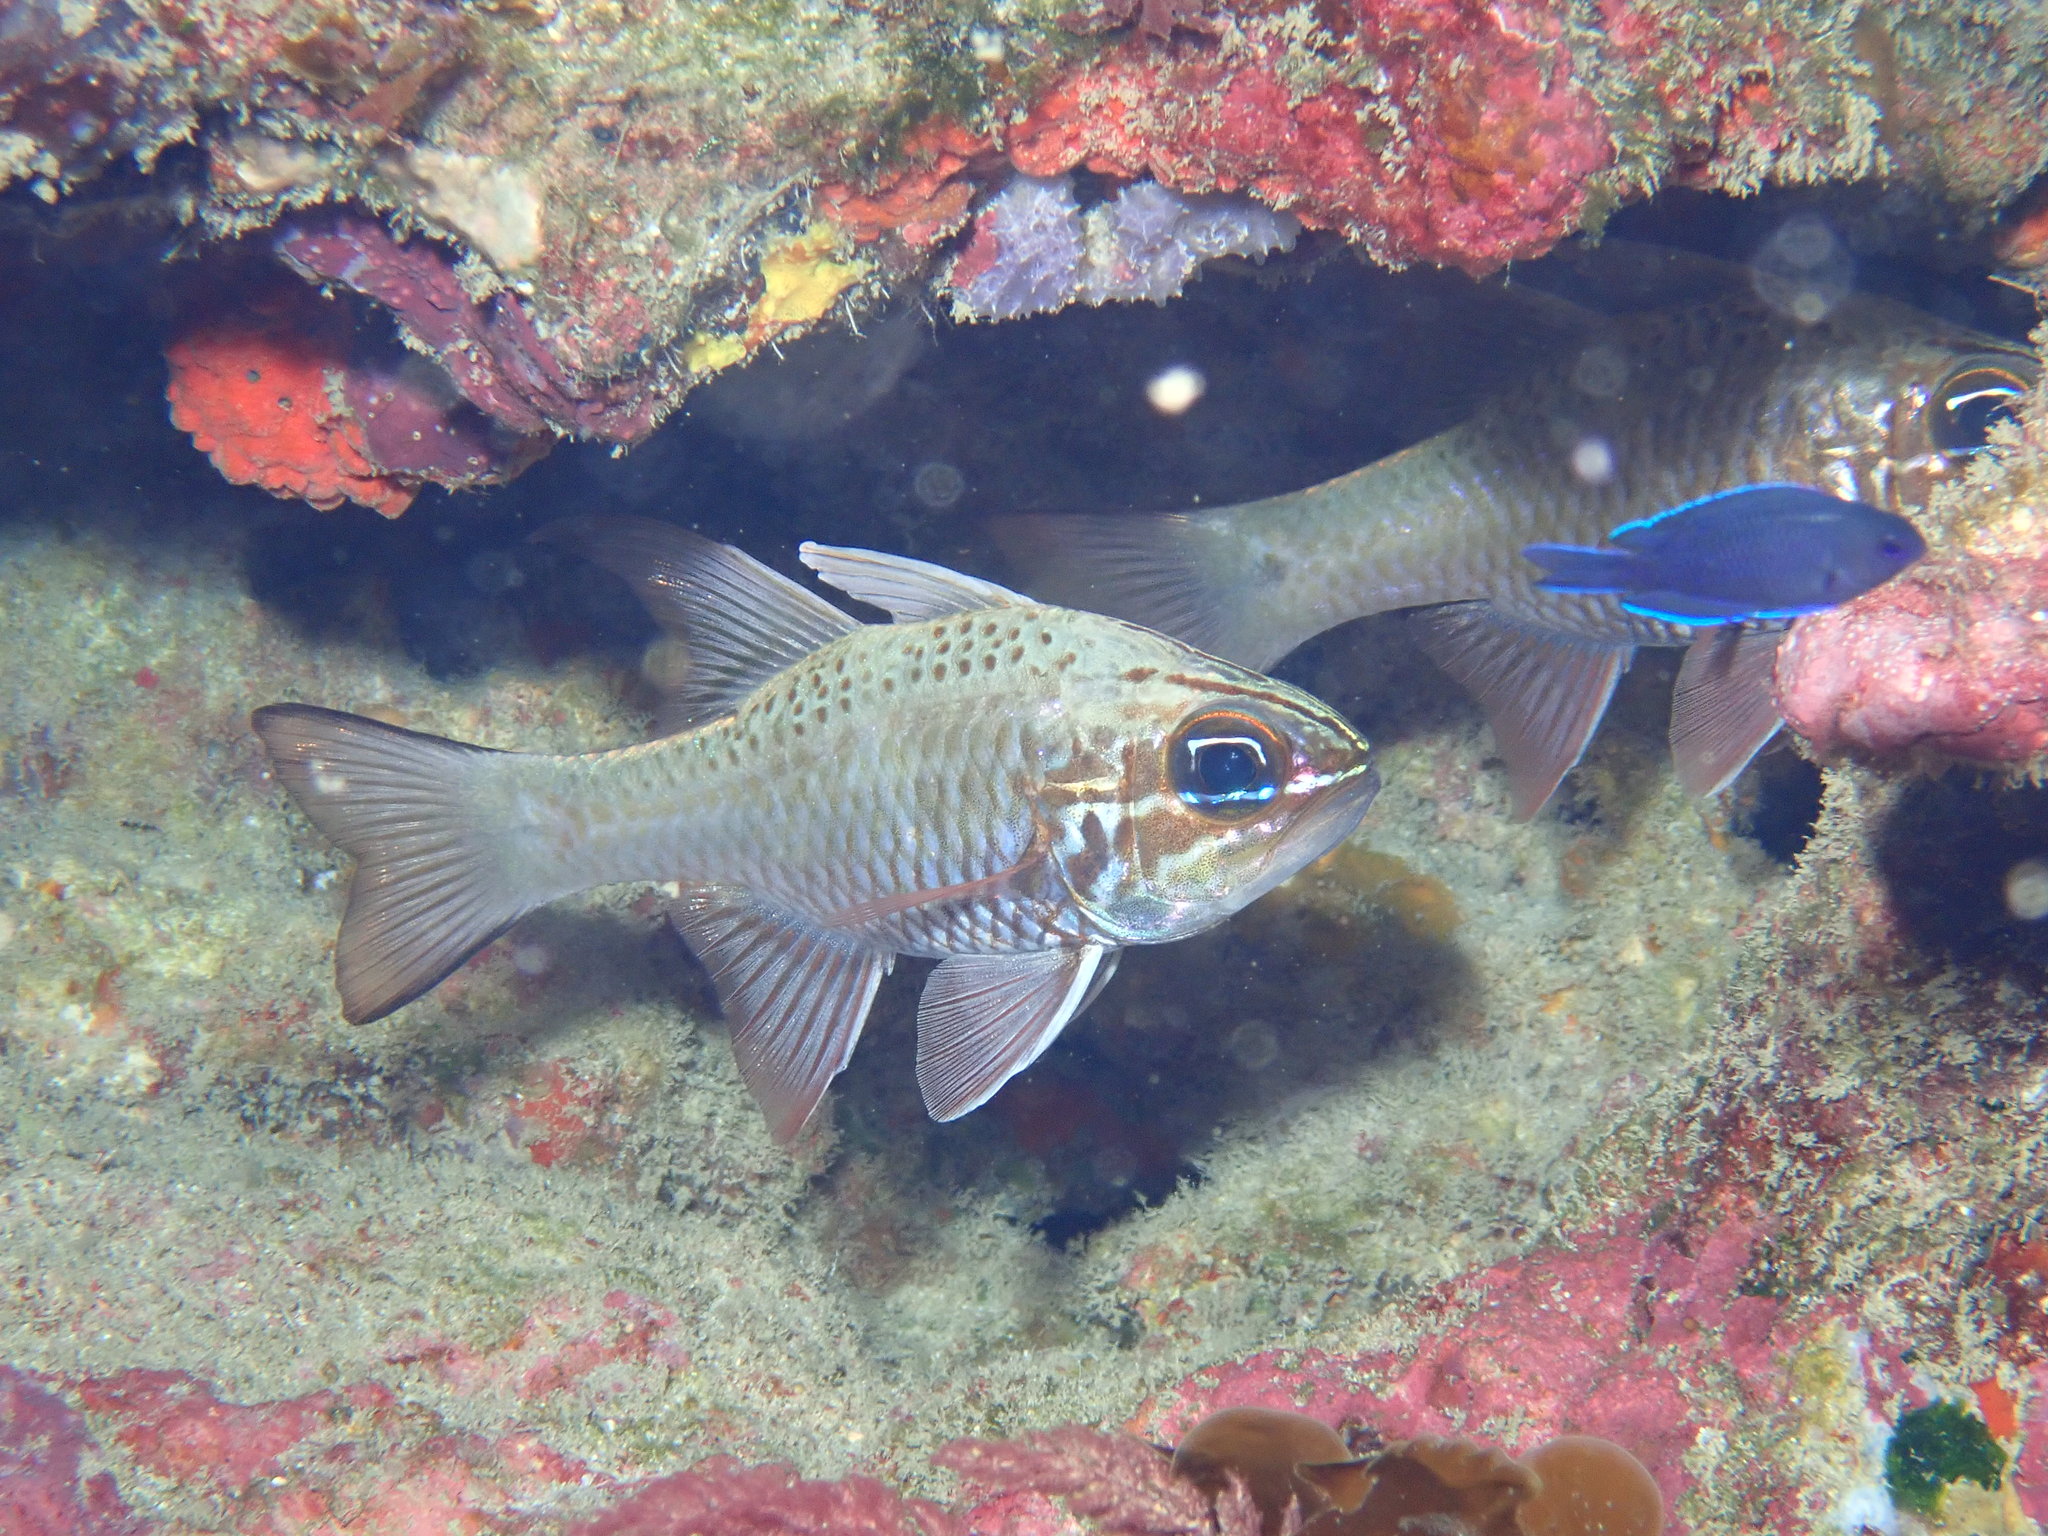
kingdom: Animalia
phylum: Chordata
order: Perciformes
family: Apogonidae
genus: Ostorhinchus
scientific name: Ostorhinchus norfolcensis
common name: Norfolk cardinalfish
